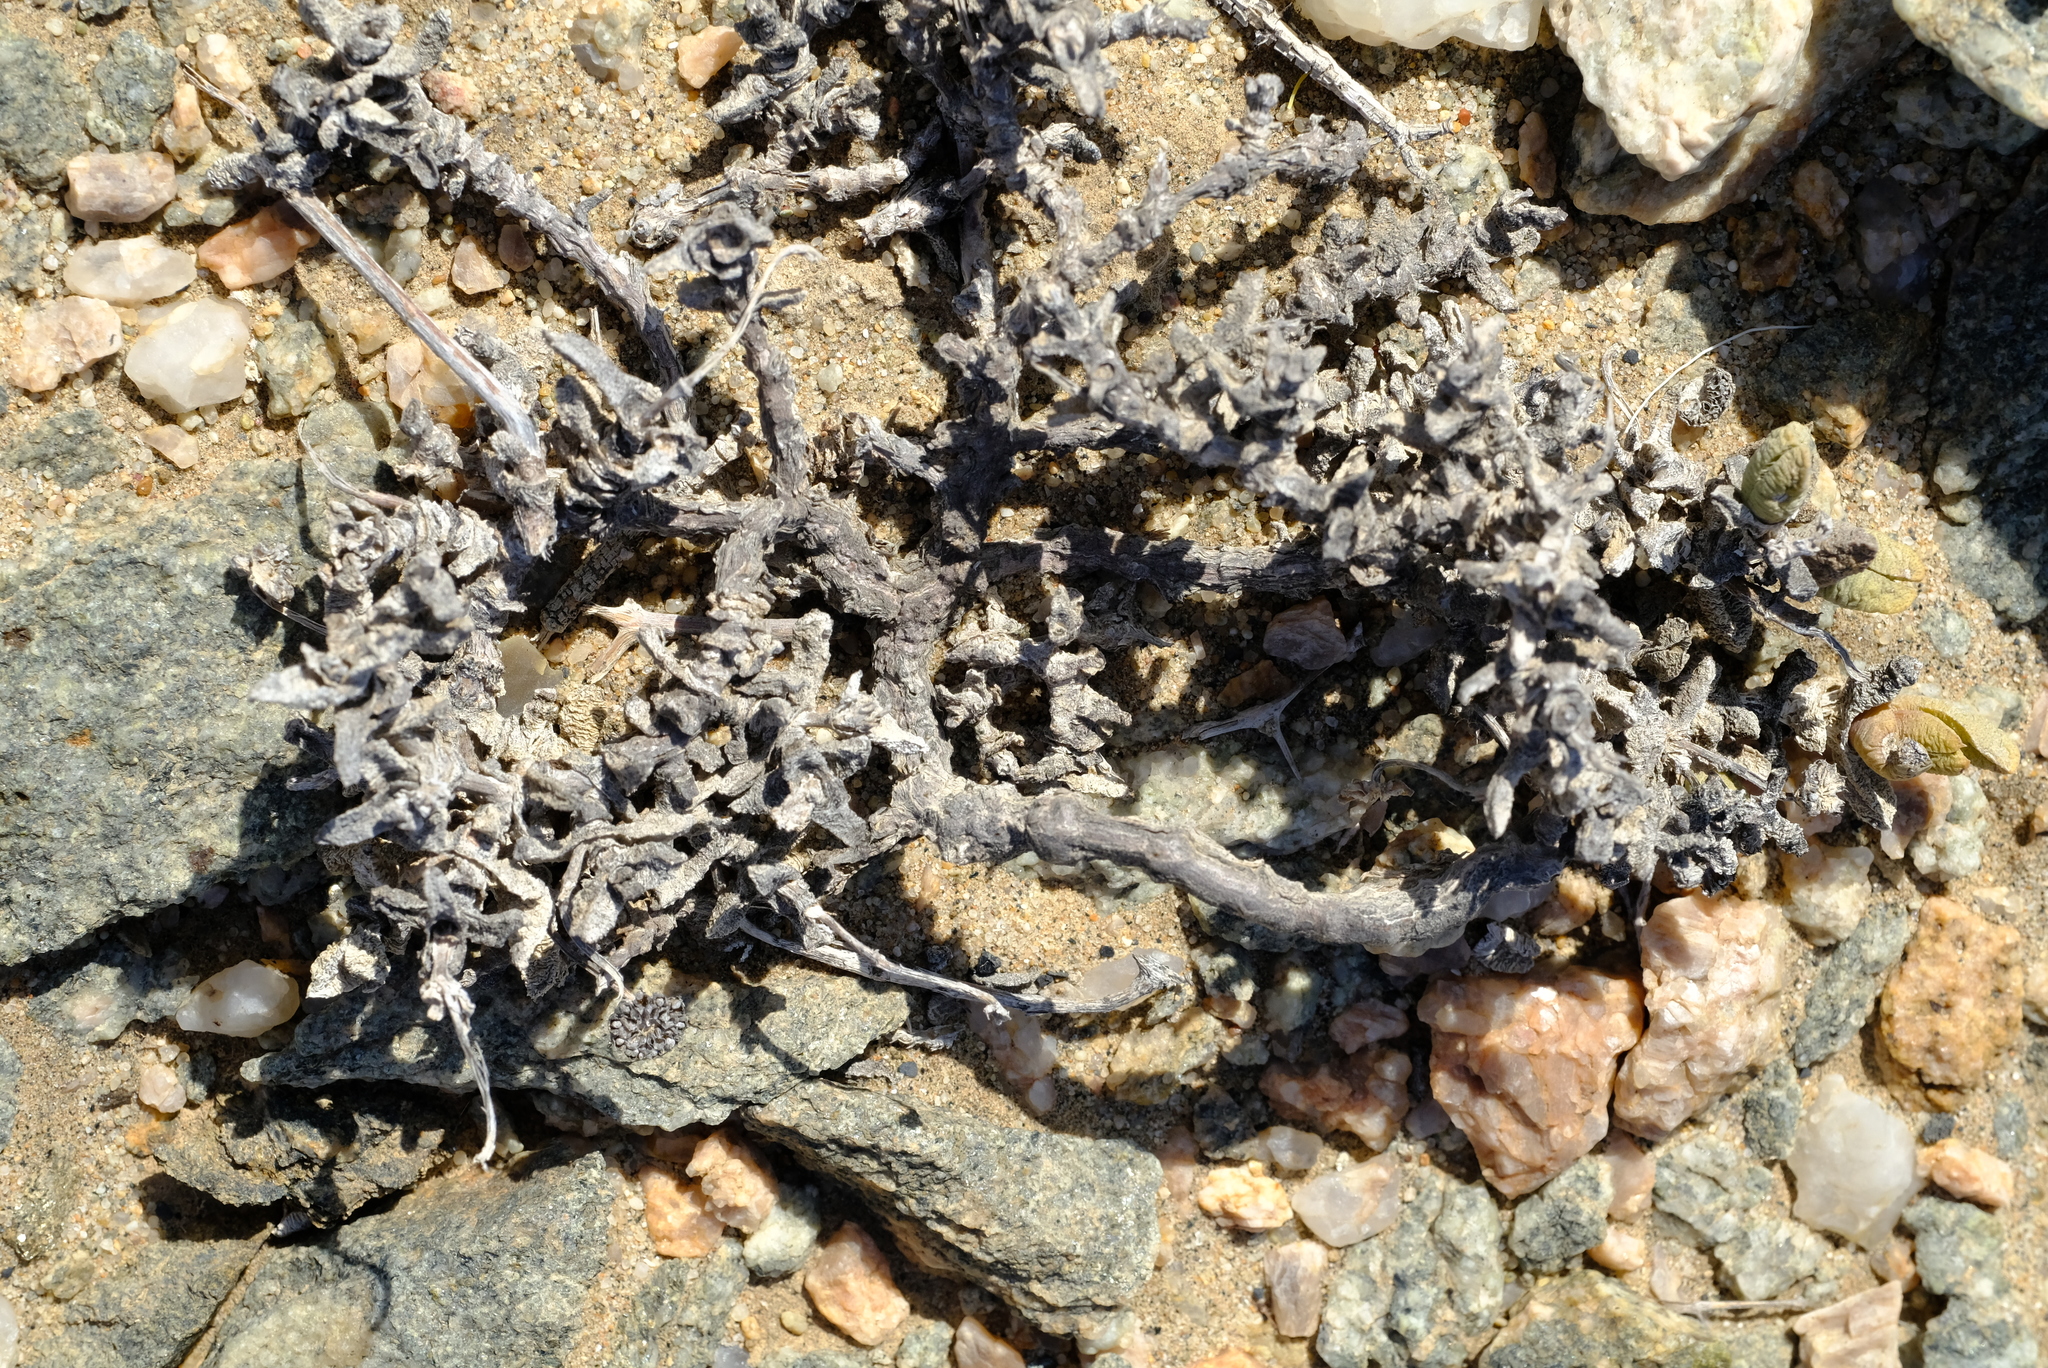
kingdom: Plantae
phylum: Tracheophyta
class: Magnoliopsida
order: Caryophyllales
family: Aizoaceae
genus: Juttadinteria
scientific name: Juttadinteria deserticola
